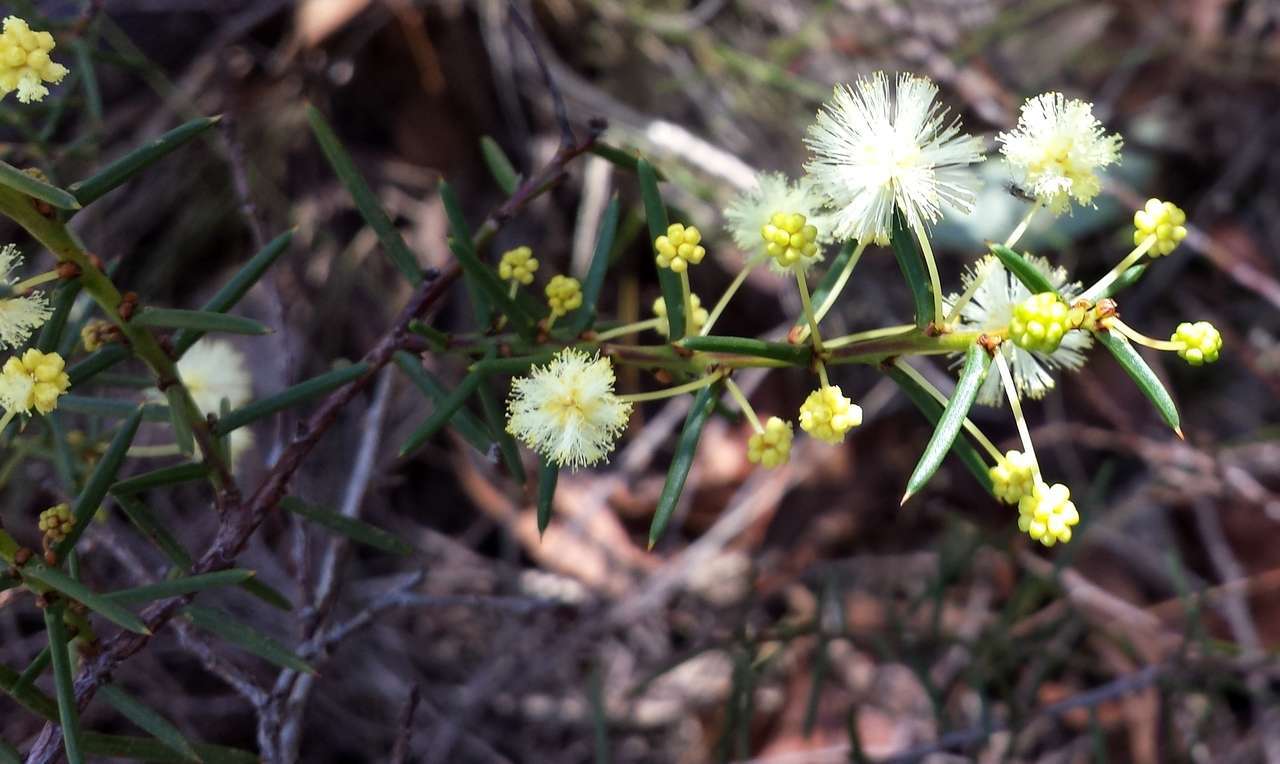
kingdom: Plantae
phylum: Tracheophyta
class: Magnoliopsida
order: Fabales
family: Fabaceae
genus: Acacia
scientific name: Acacia genistifolia
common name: Early wattle
